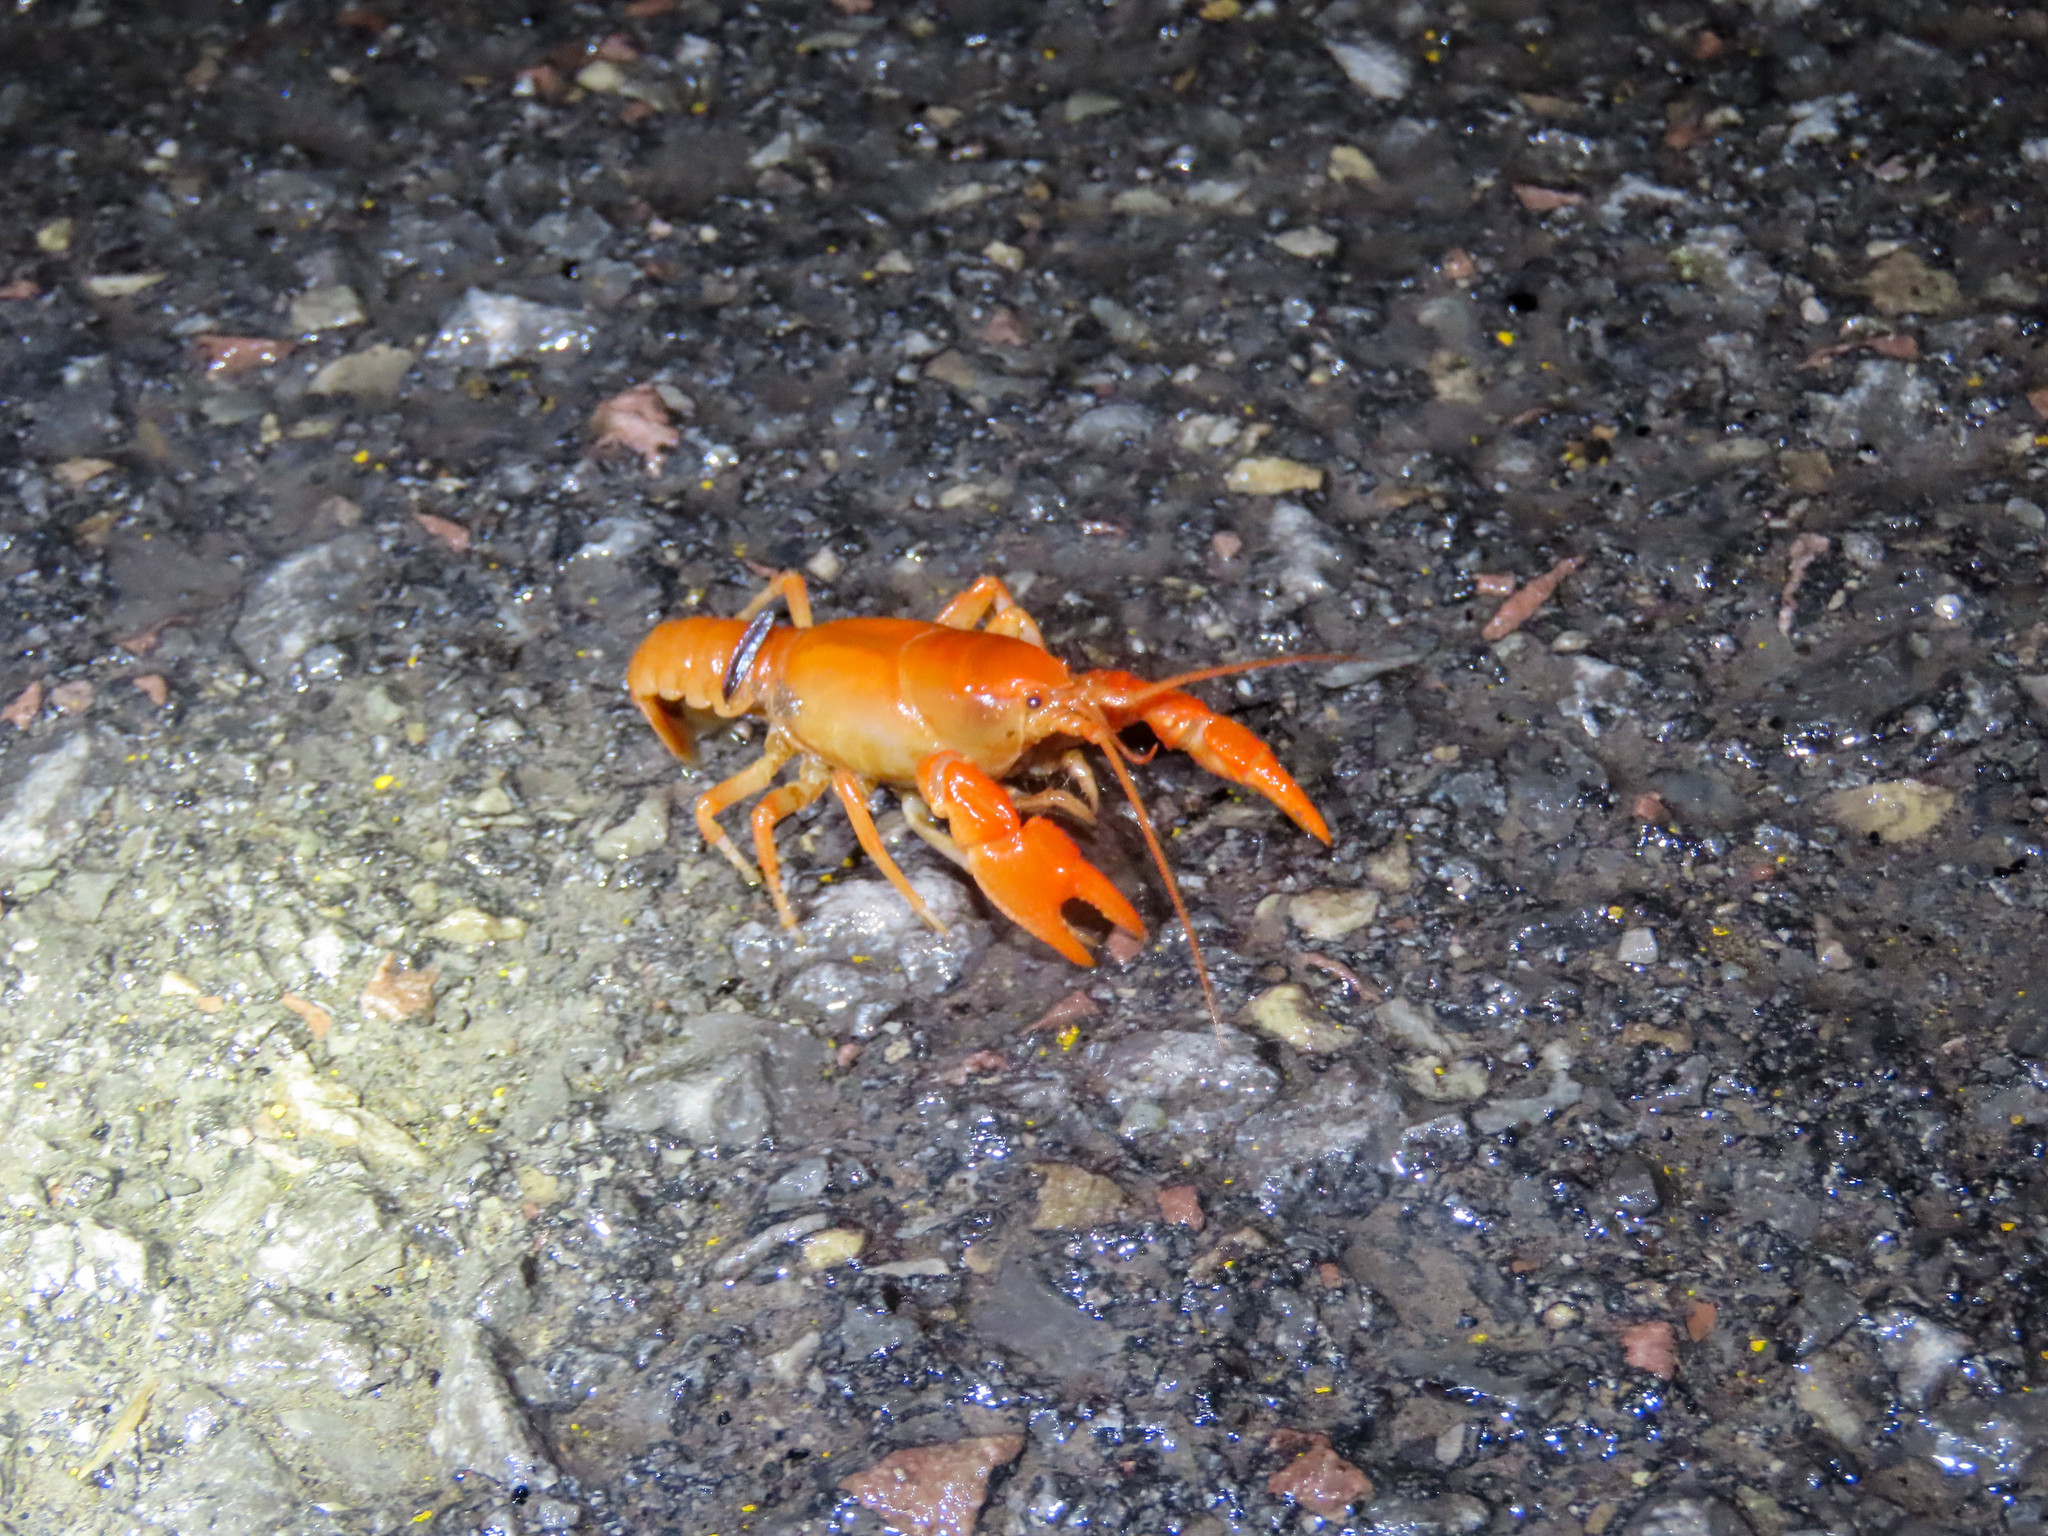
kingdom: Animalia
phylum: Arthropoda
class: Malacostraca
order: Decapoda
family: Cambaridae
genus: Cambarus
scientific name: Cambarus dubius
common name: Upland burrowing crayfish
